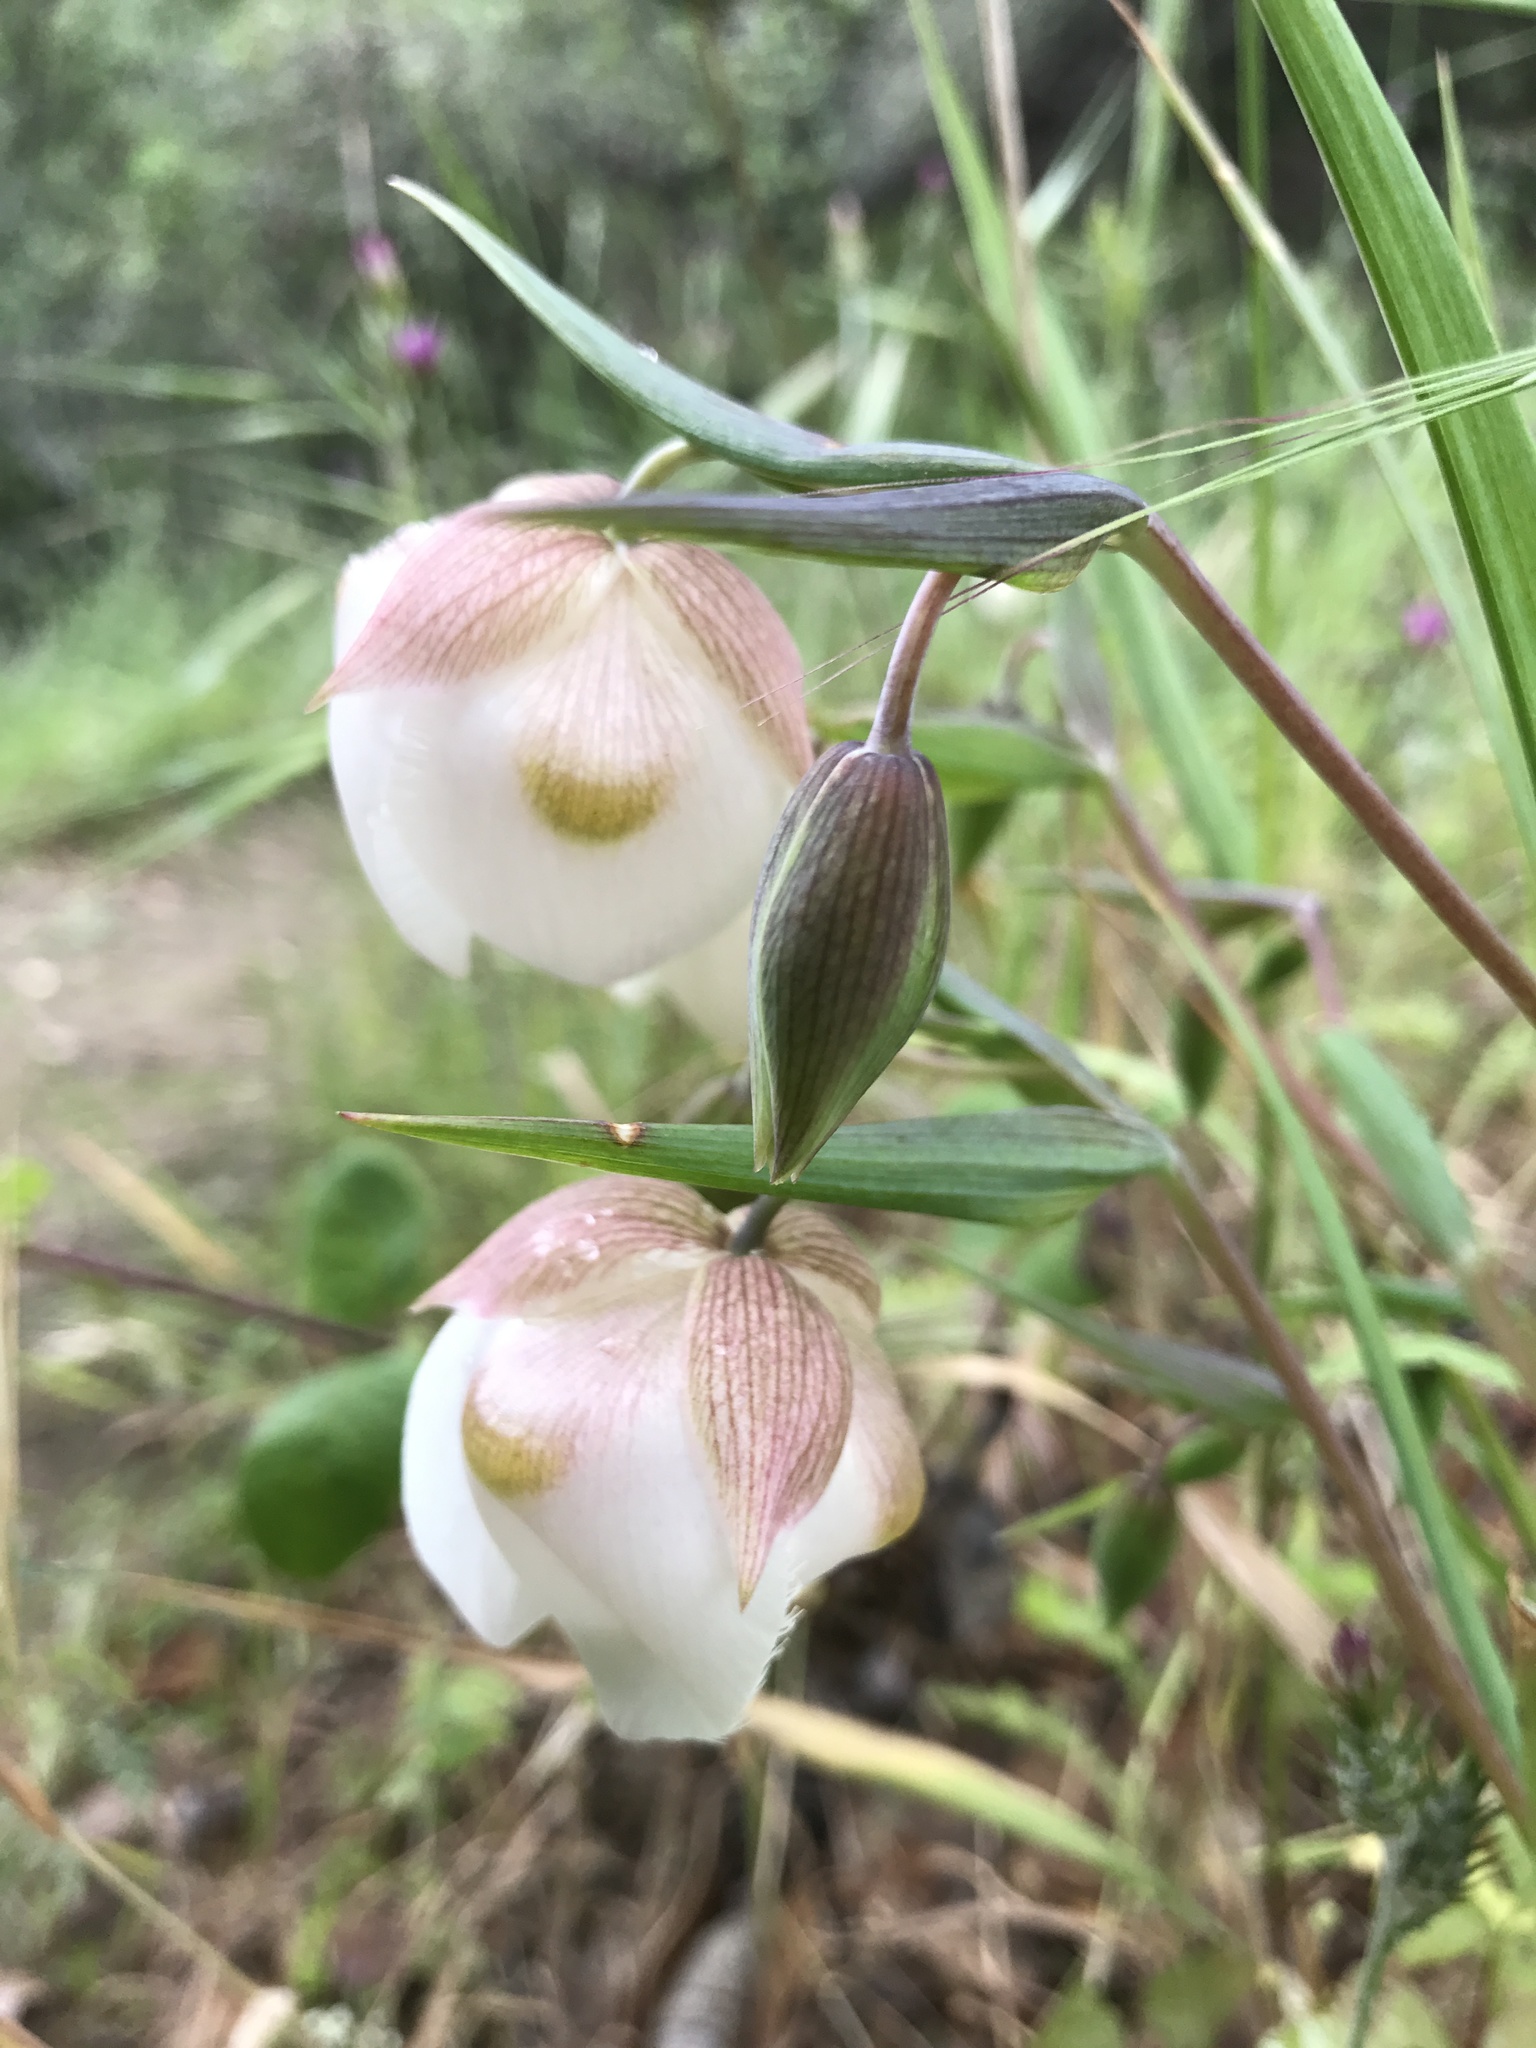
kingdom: Plantae
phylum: Tracheophyta
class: Liliopsida
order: Liliales
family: Liliaceae
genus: Calochortus
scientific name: Calochortus albus
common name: Fairy-lantern
